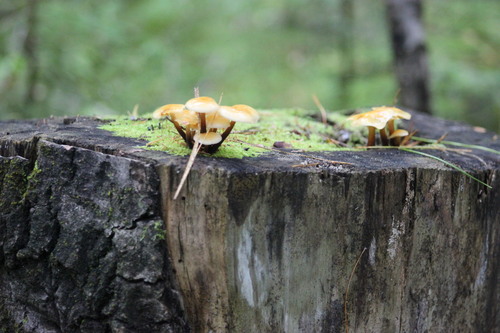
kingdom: Fungi
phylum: Basidiomycota
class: Agaricomycetes
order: Agaricales
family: Physalacriaceae
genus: Flammulina
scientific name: Flammulina velutipes
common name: Velvet shank
